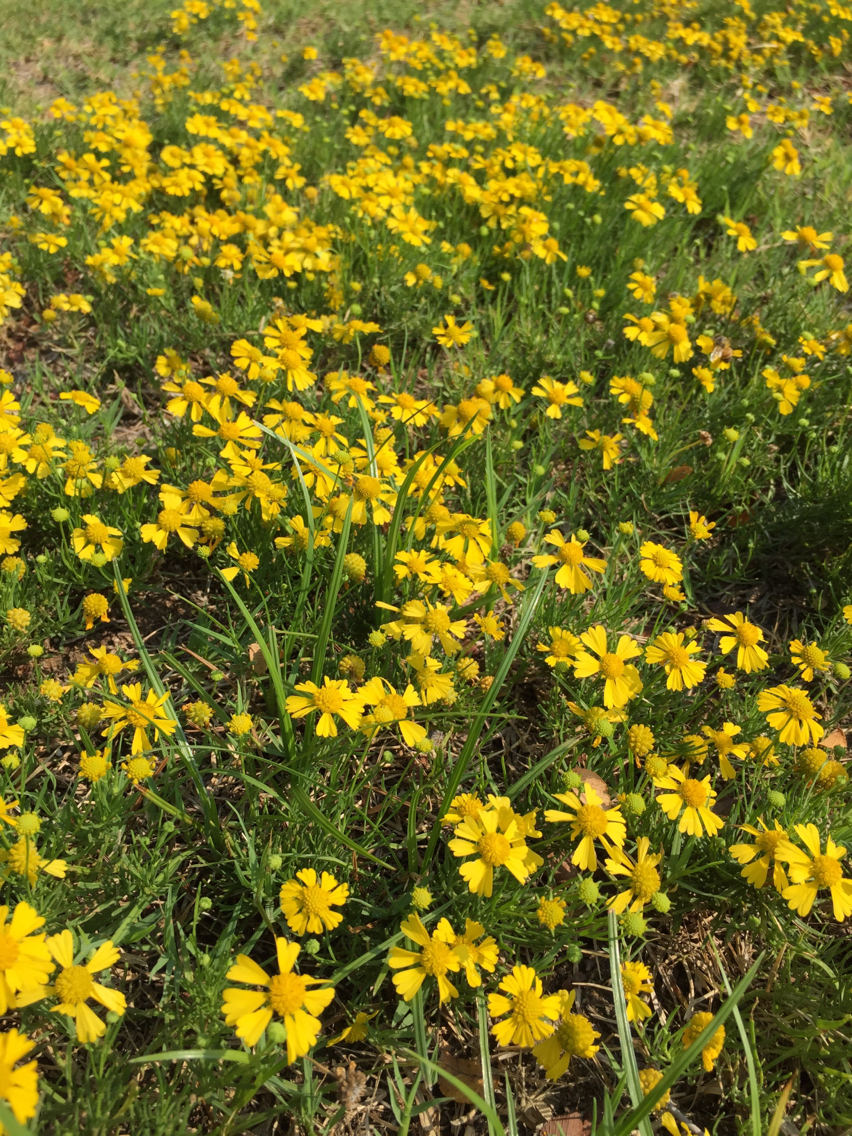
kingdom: Plantae
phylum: Tracheophyta
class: Magnoliopsida
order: Asterales
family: Asteraceae
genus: Helenium
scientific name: Helenium amarum
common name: Bitter sneezeweed
